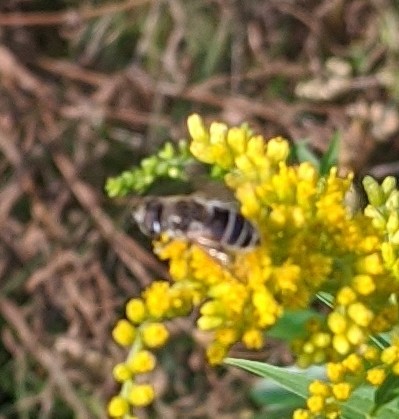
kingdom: Animalia
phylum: Arthropoda
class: Insecta
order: Diptera
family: Syrphidae
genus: Eristalis
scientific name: Eristalis arbustorum
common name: Hover fly
